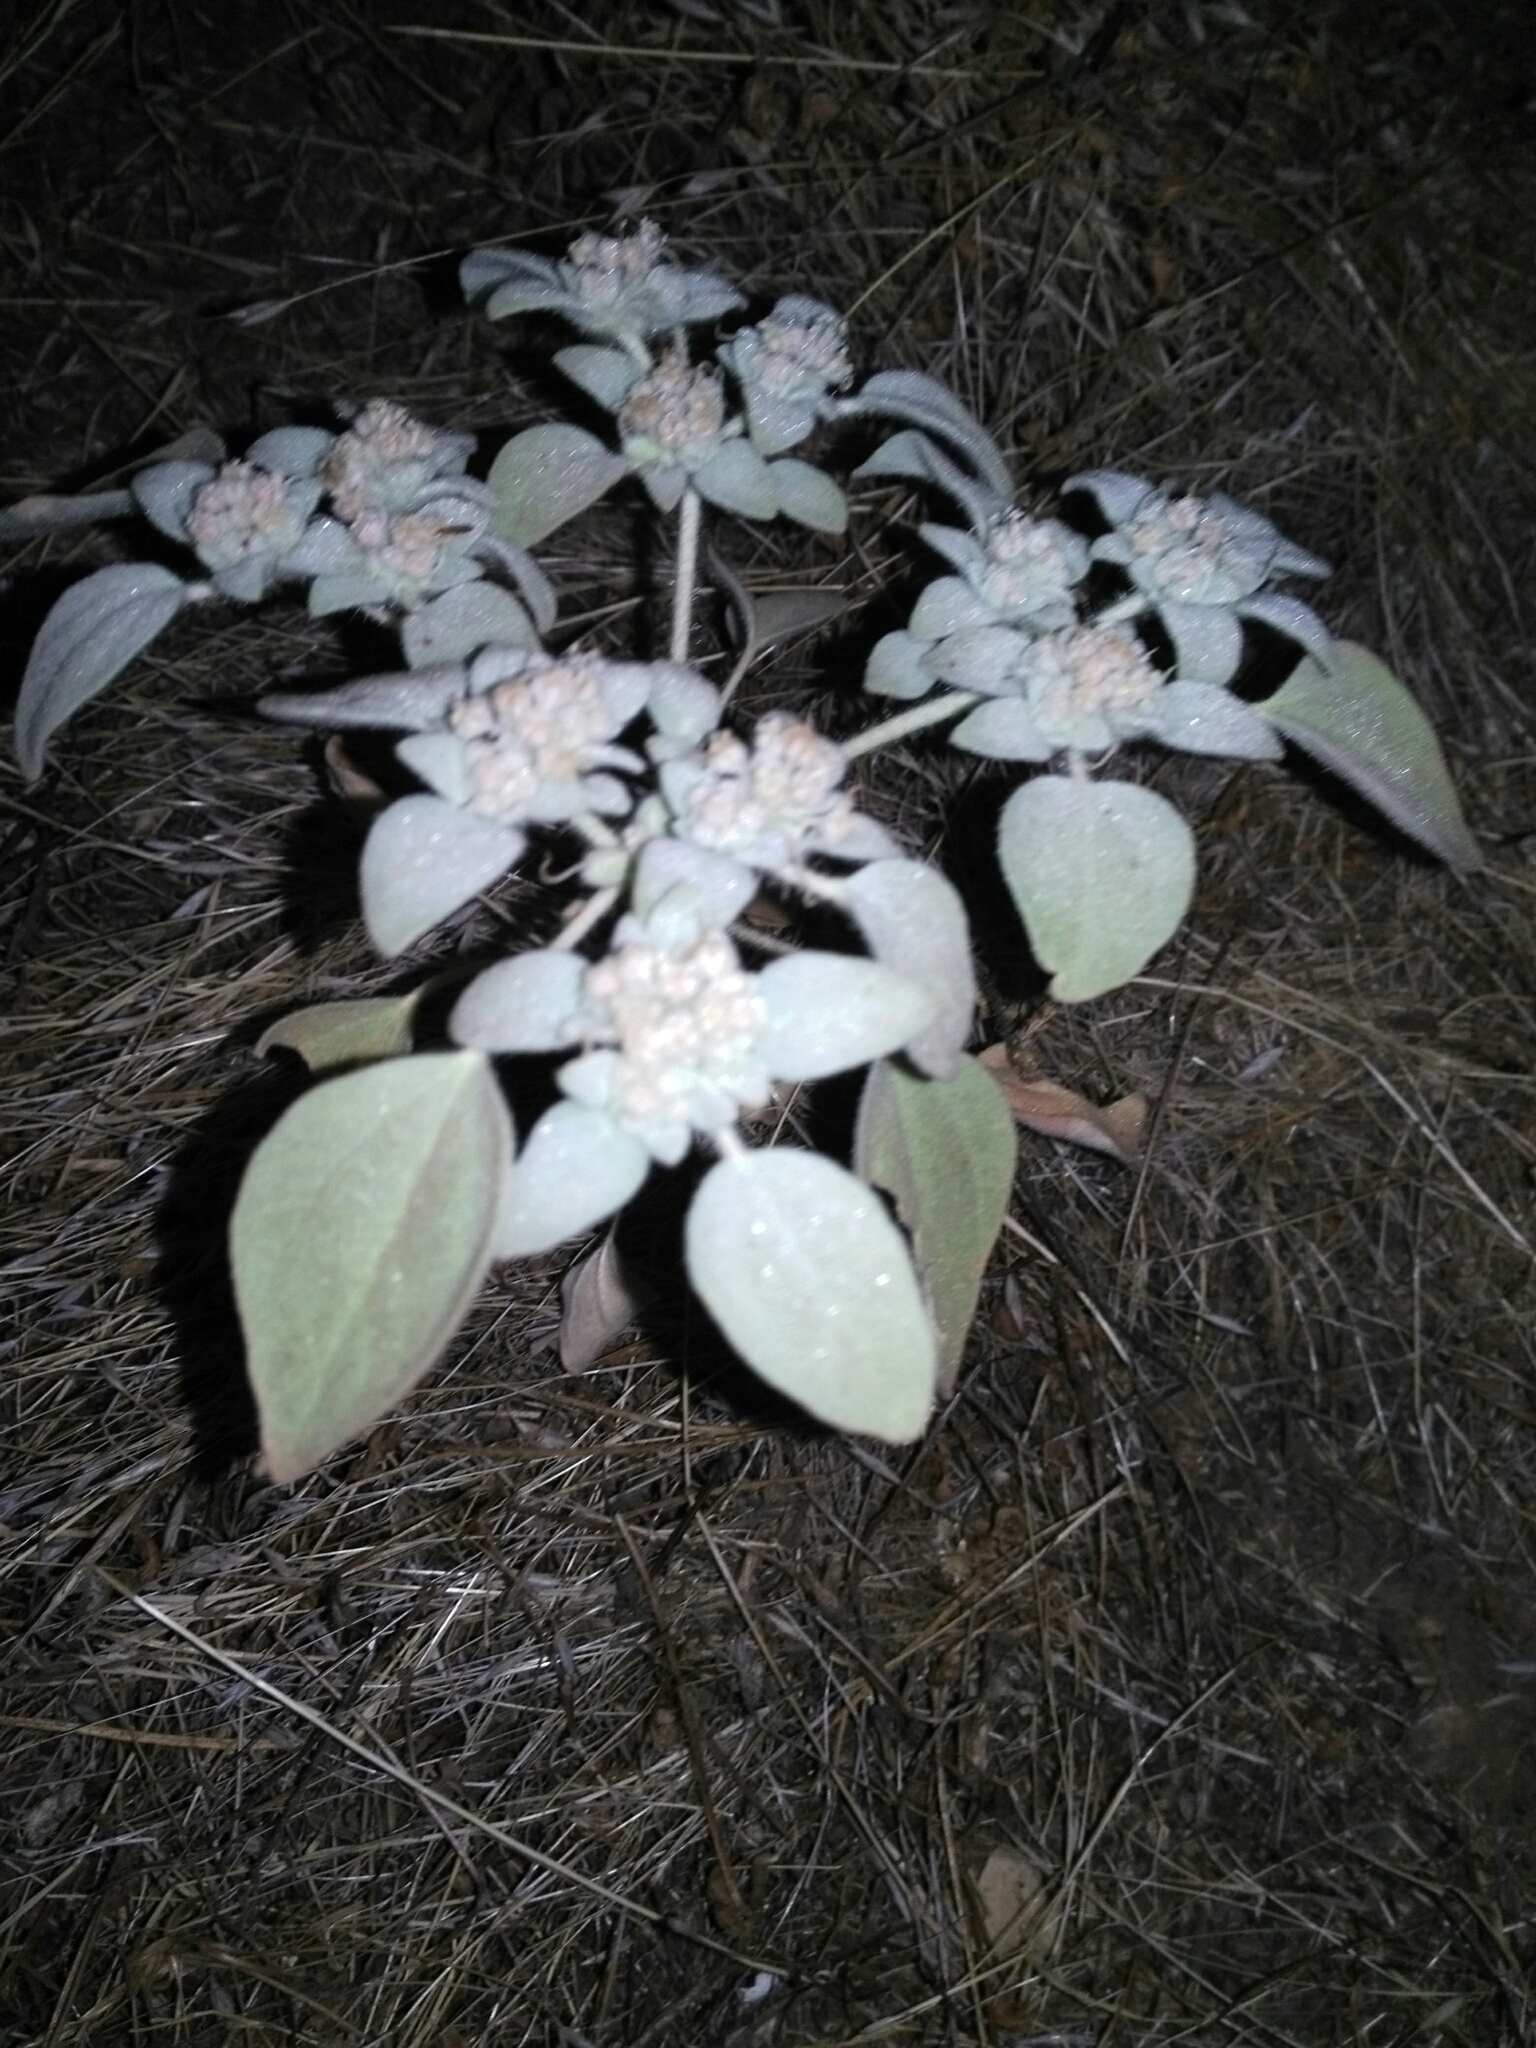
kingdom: Plantae
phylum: Tracheophyta
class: Magnoliopsida
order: Malpighiales
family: Euphorbiaceae
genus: Croton
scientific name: Croton setiger
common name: Dove weed
